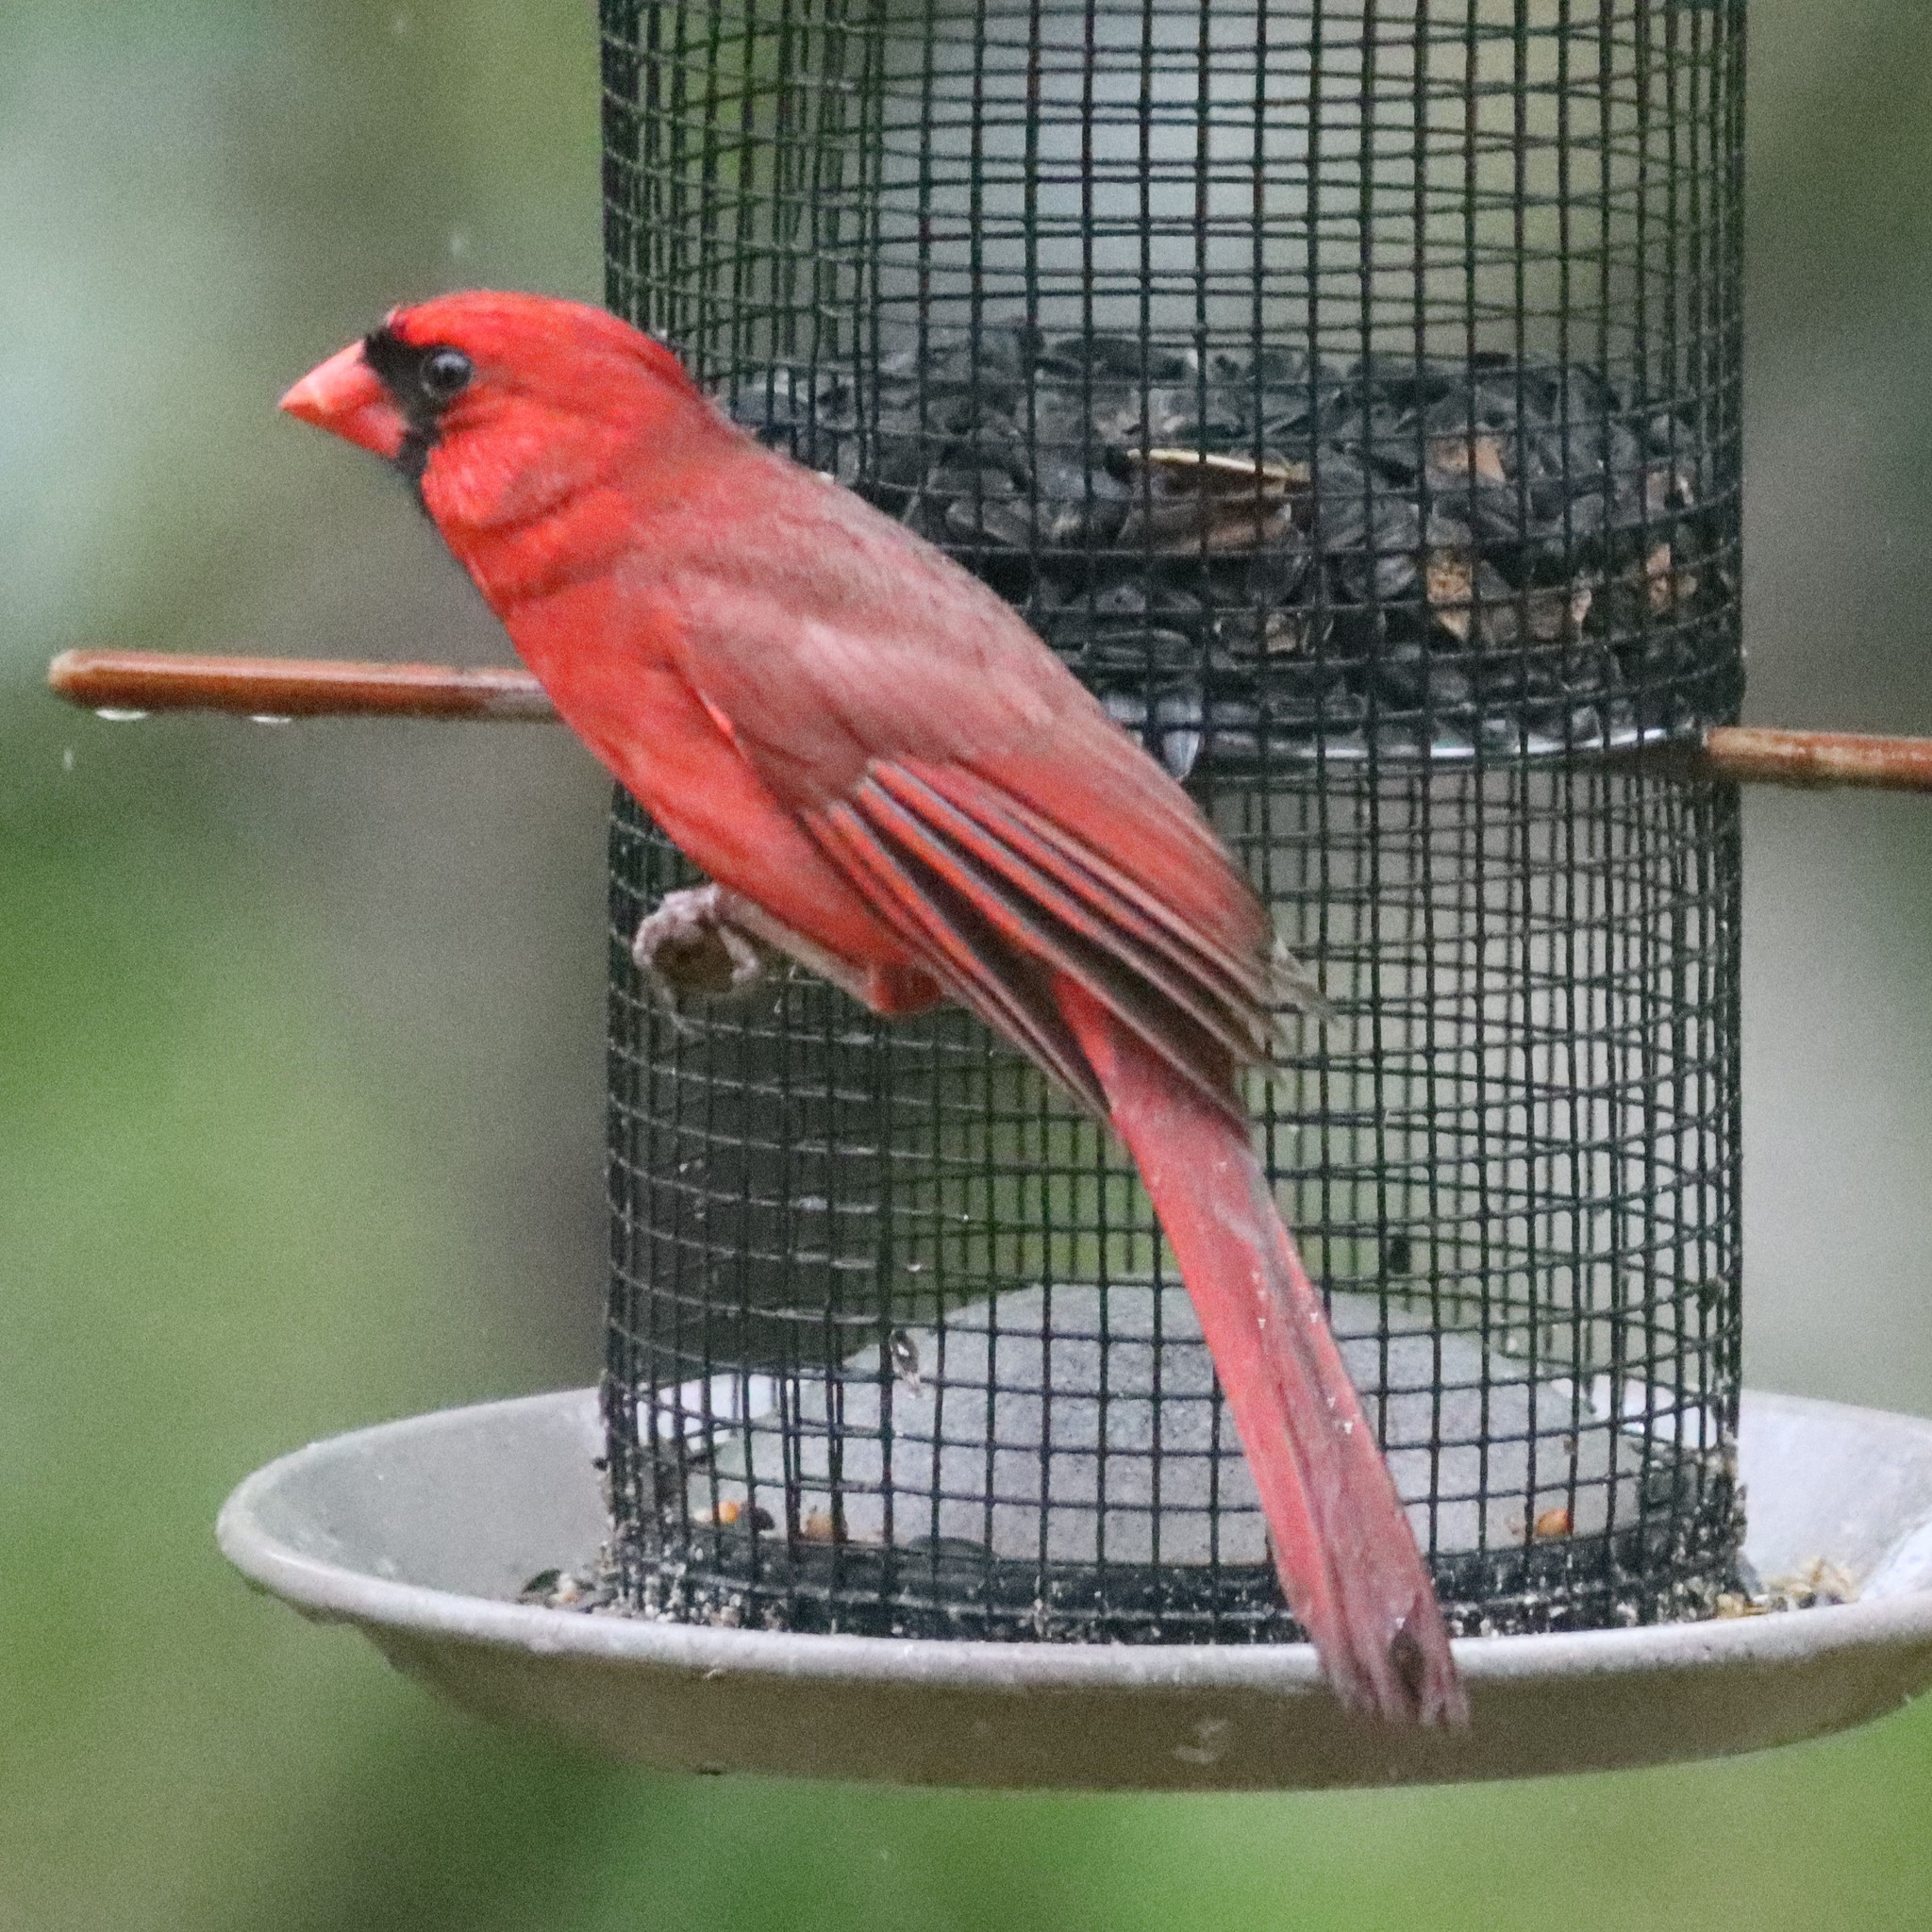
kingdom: Animalia
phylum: Chordata
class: Aves
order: Passeriformes
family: Cardinalidae
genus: Cardinalis
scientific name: Cardinalis cardinalis
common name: Northern cardinal
